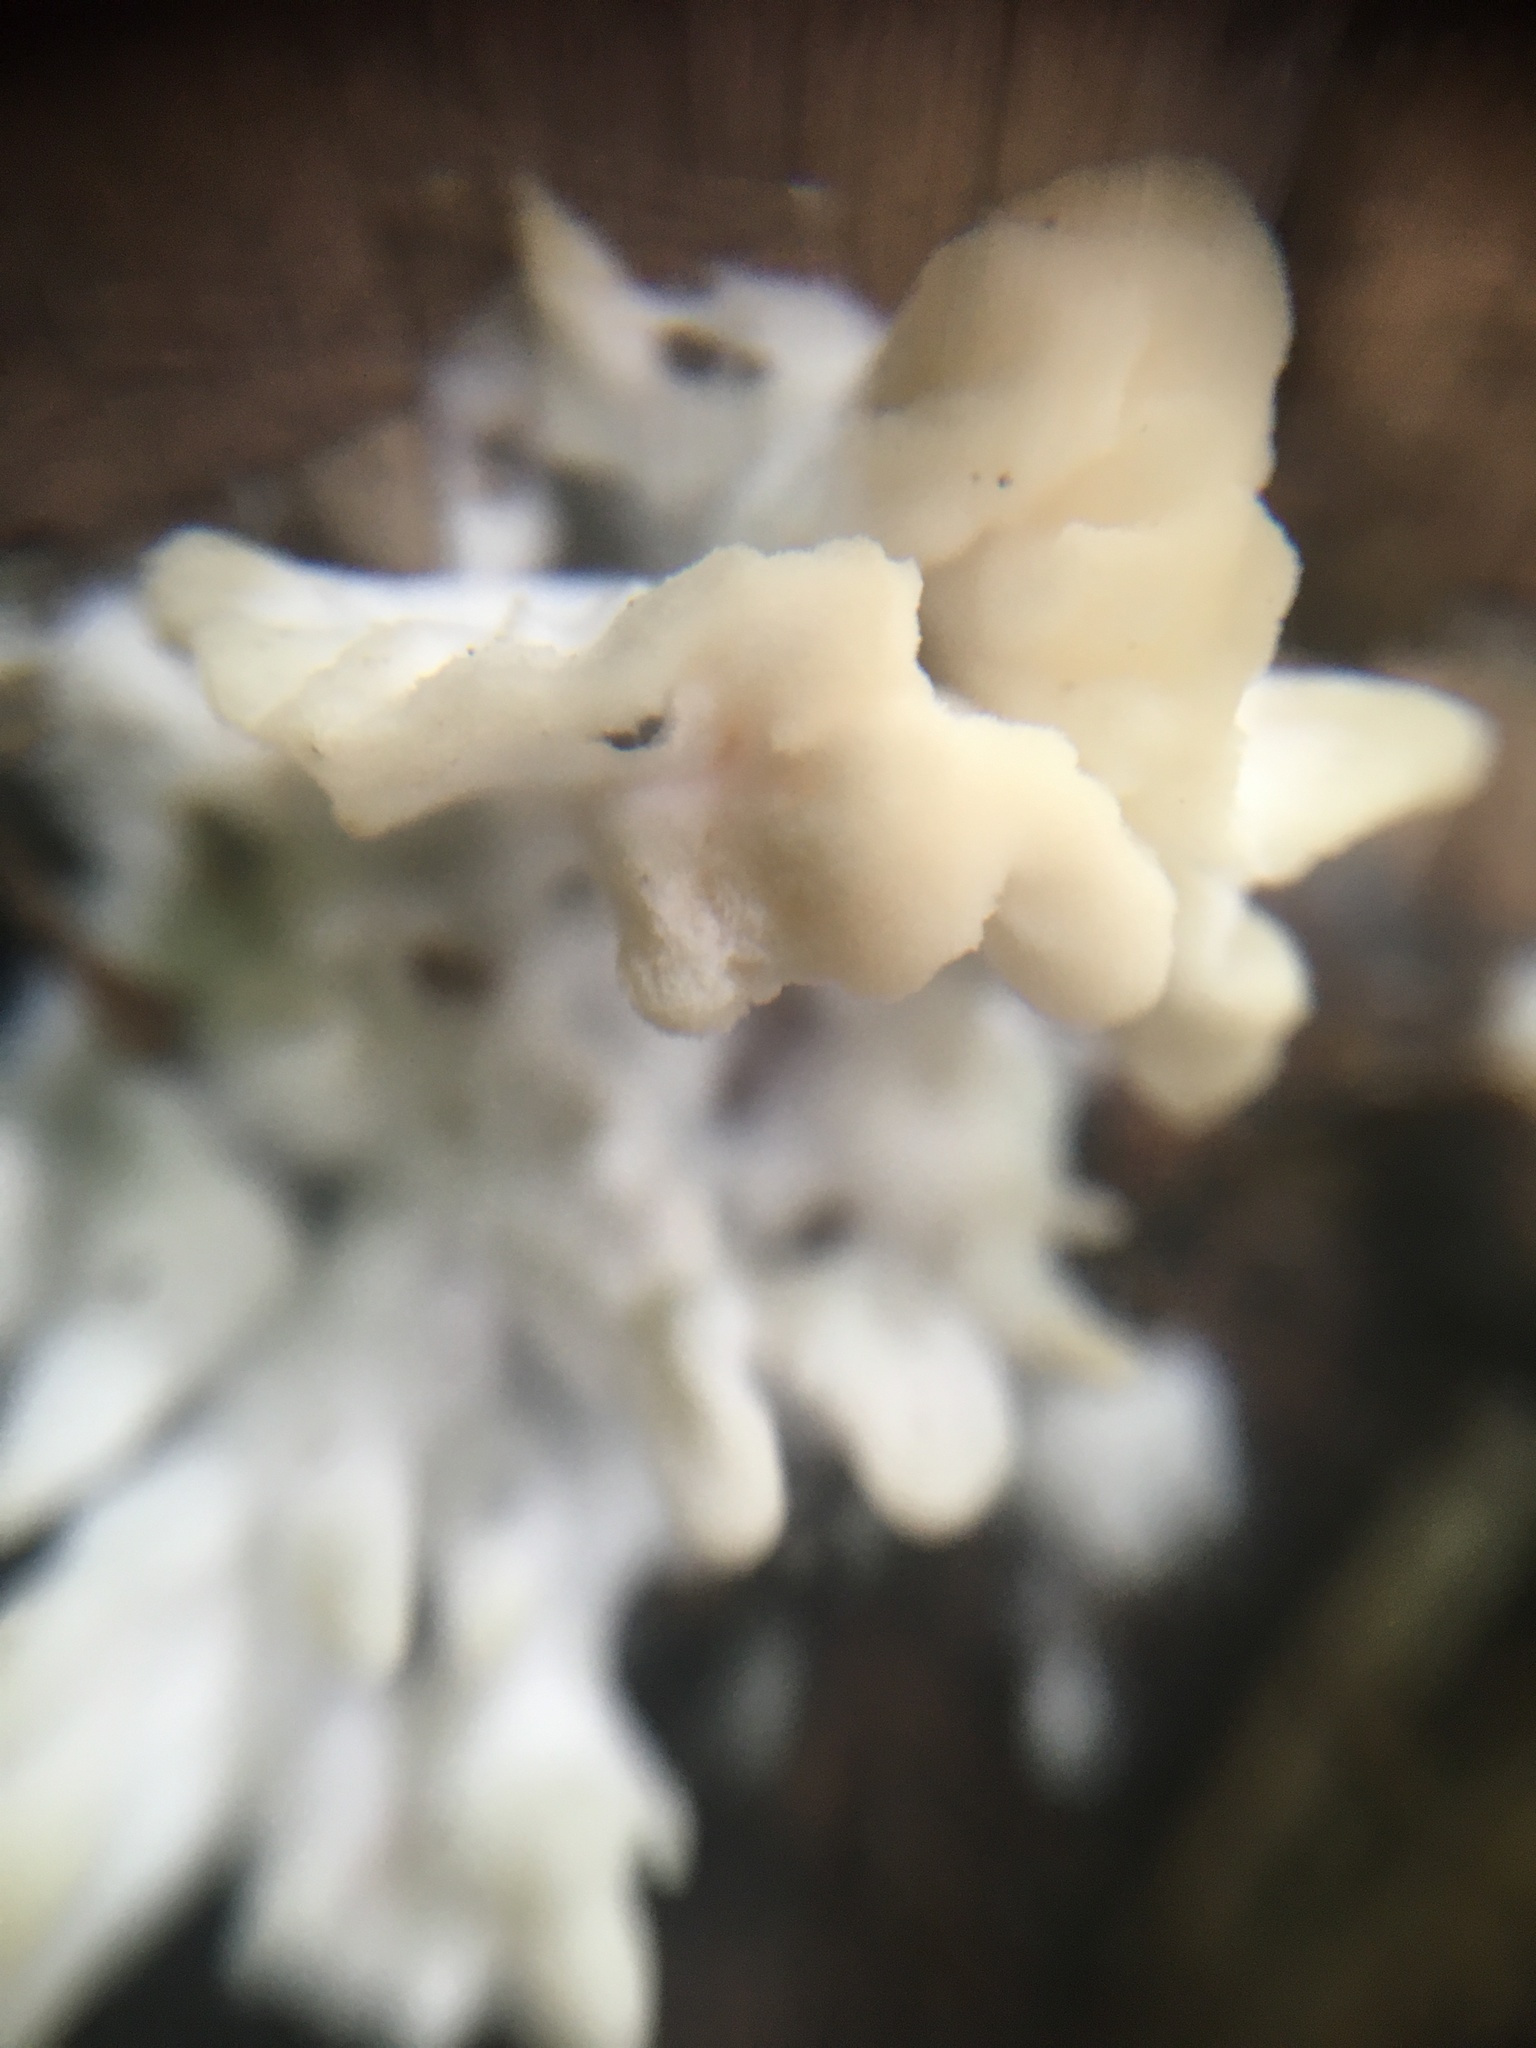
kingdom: Fungi
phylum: Basidiomycota
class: Agaricomycetes
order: Sebacinales
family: Sebacinaceae
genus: Sebacina
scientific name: Sebacina schweinitzii
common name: Jellied false coral fungus
